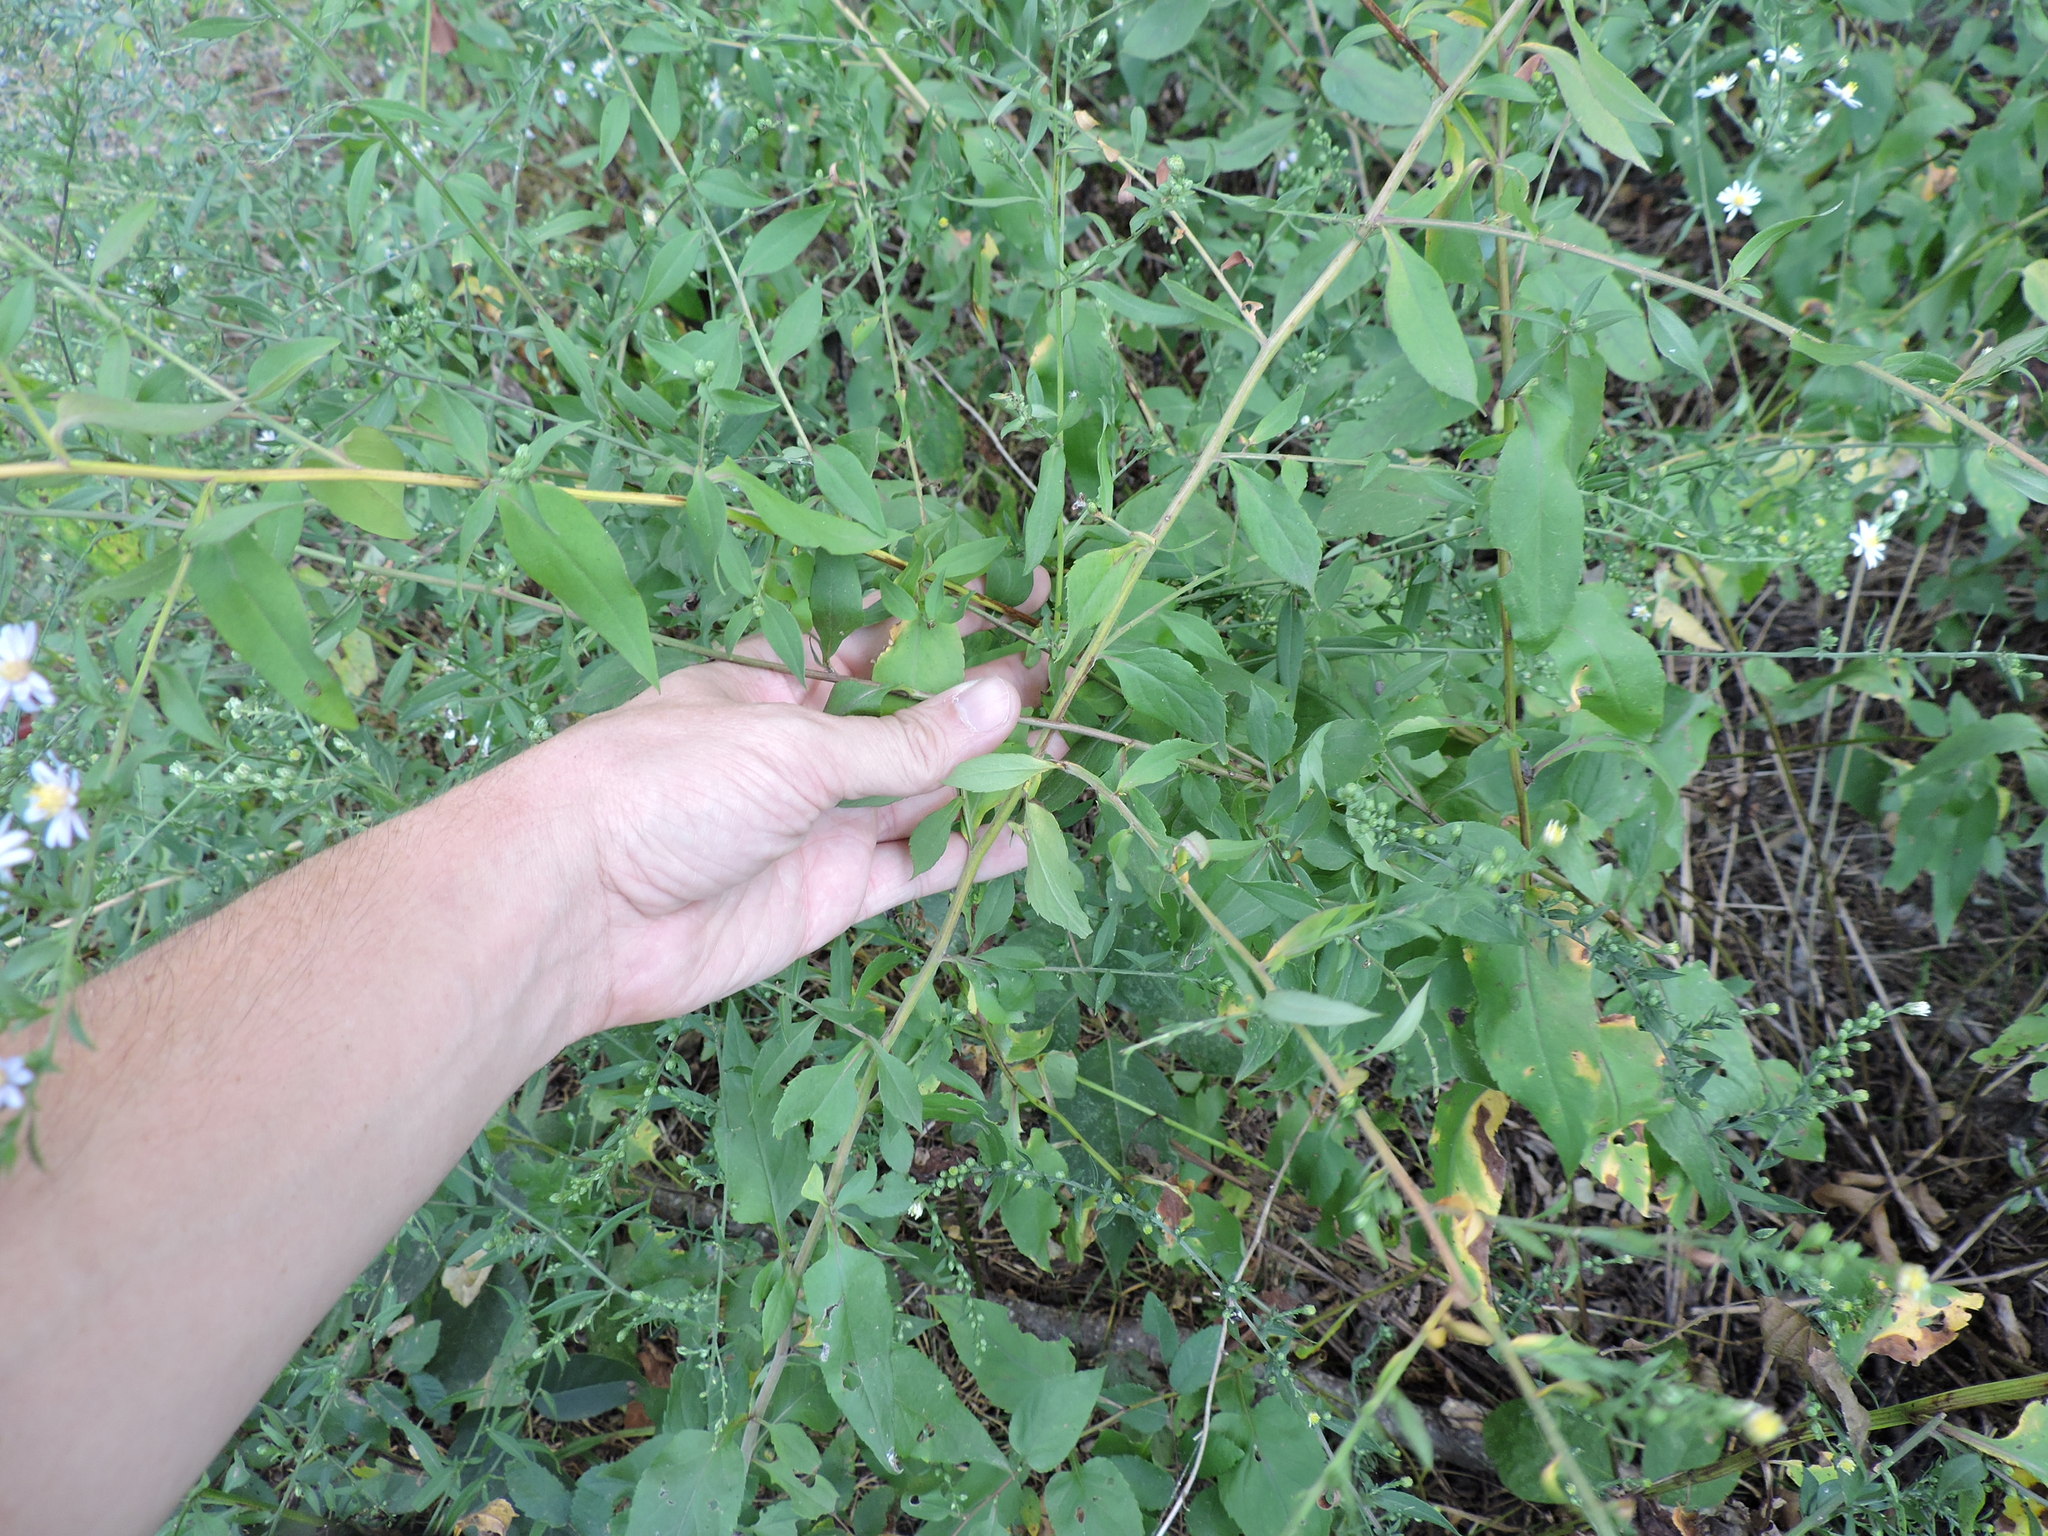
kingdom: Plantae
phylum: Tracheophyta
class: Magnoliopsida
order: Asterales
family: Asteraceae
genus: Symphyotrichum
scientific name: Symphyotrichum drummondii
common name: Drummond's aster
